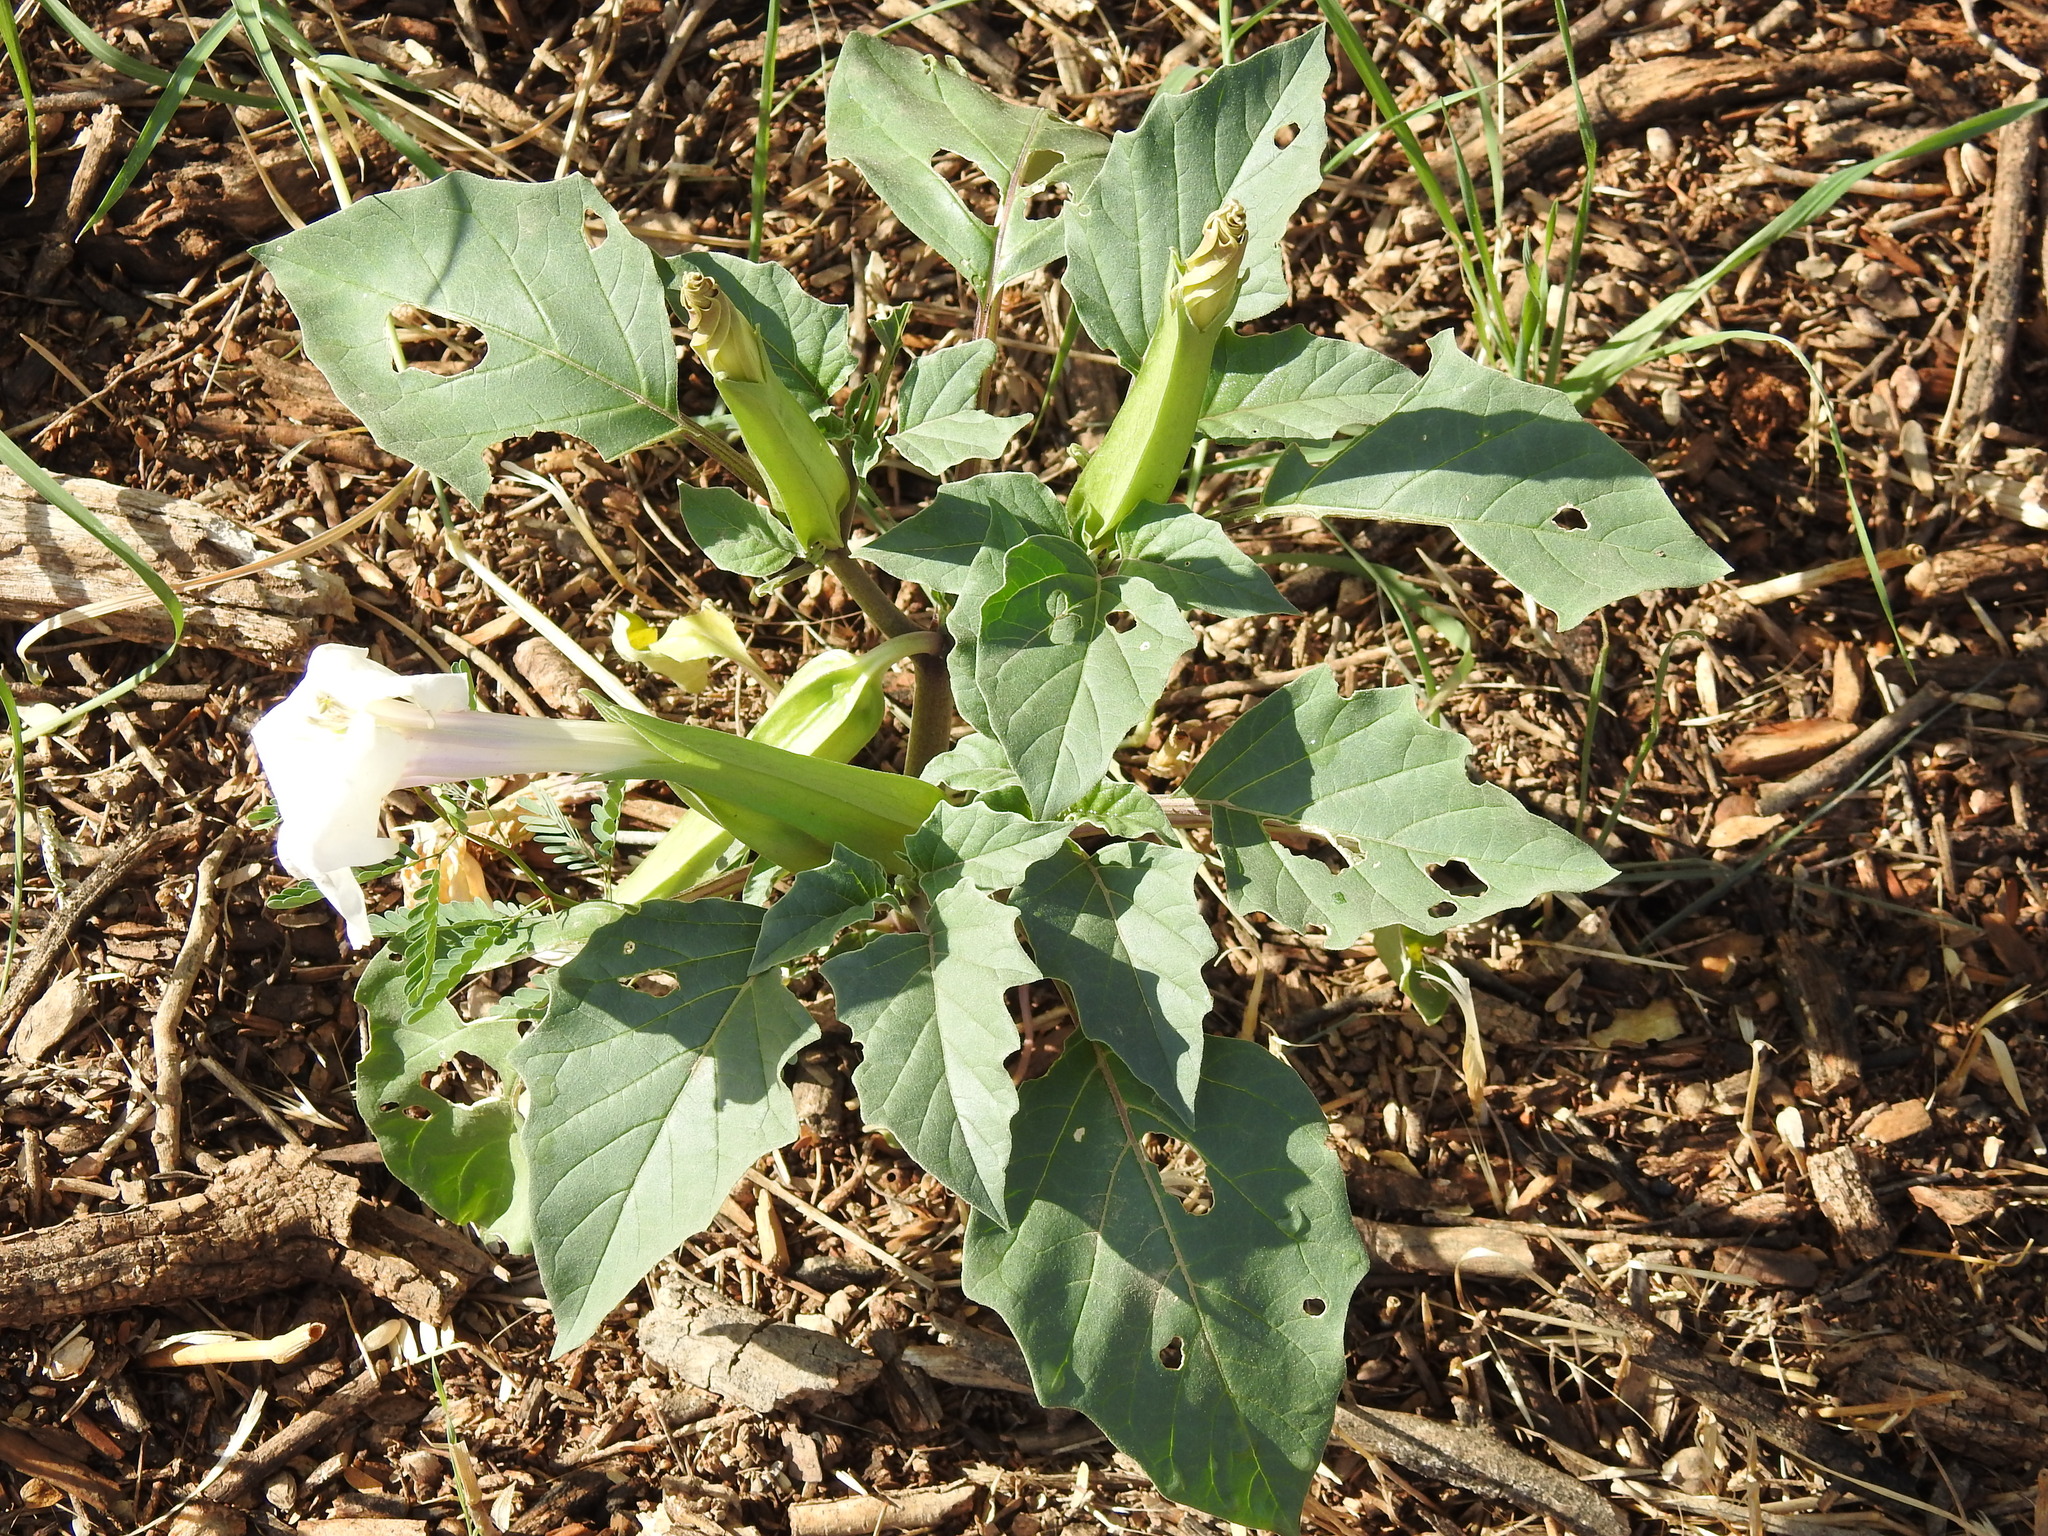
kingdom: Plantae
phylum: Tracheophyta
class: Magnoliopsida
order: Solanales
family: Solanaceae
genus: Datura
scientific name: Datura discolor
